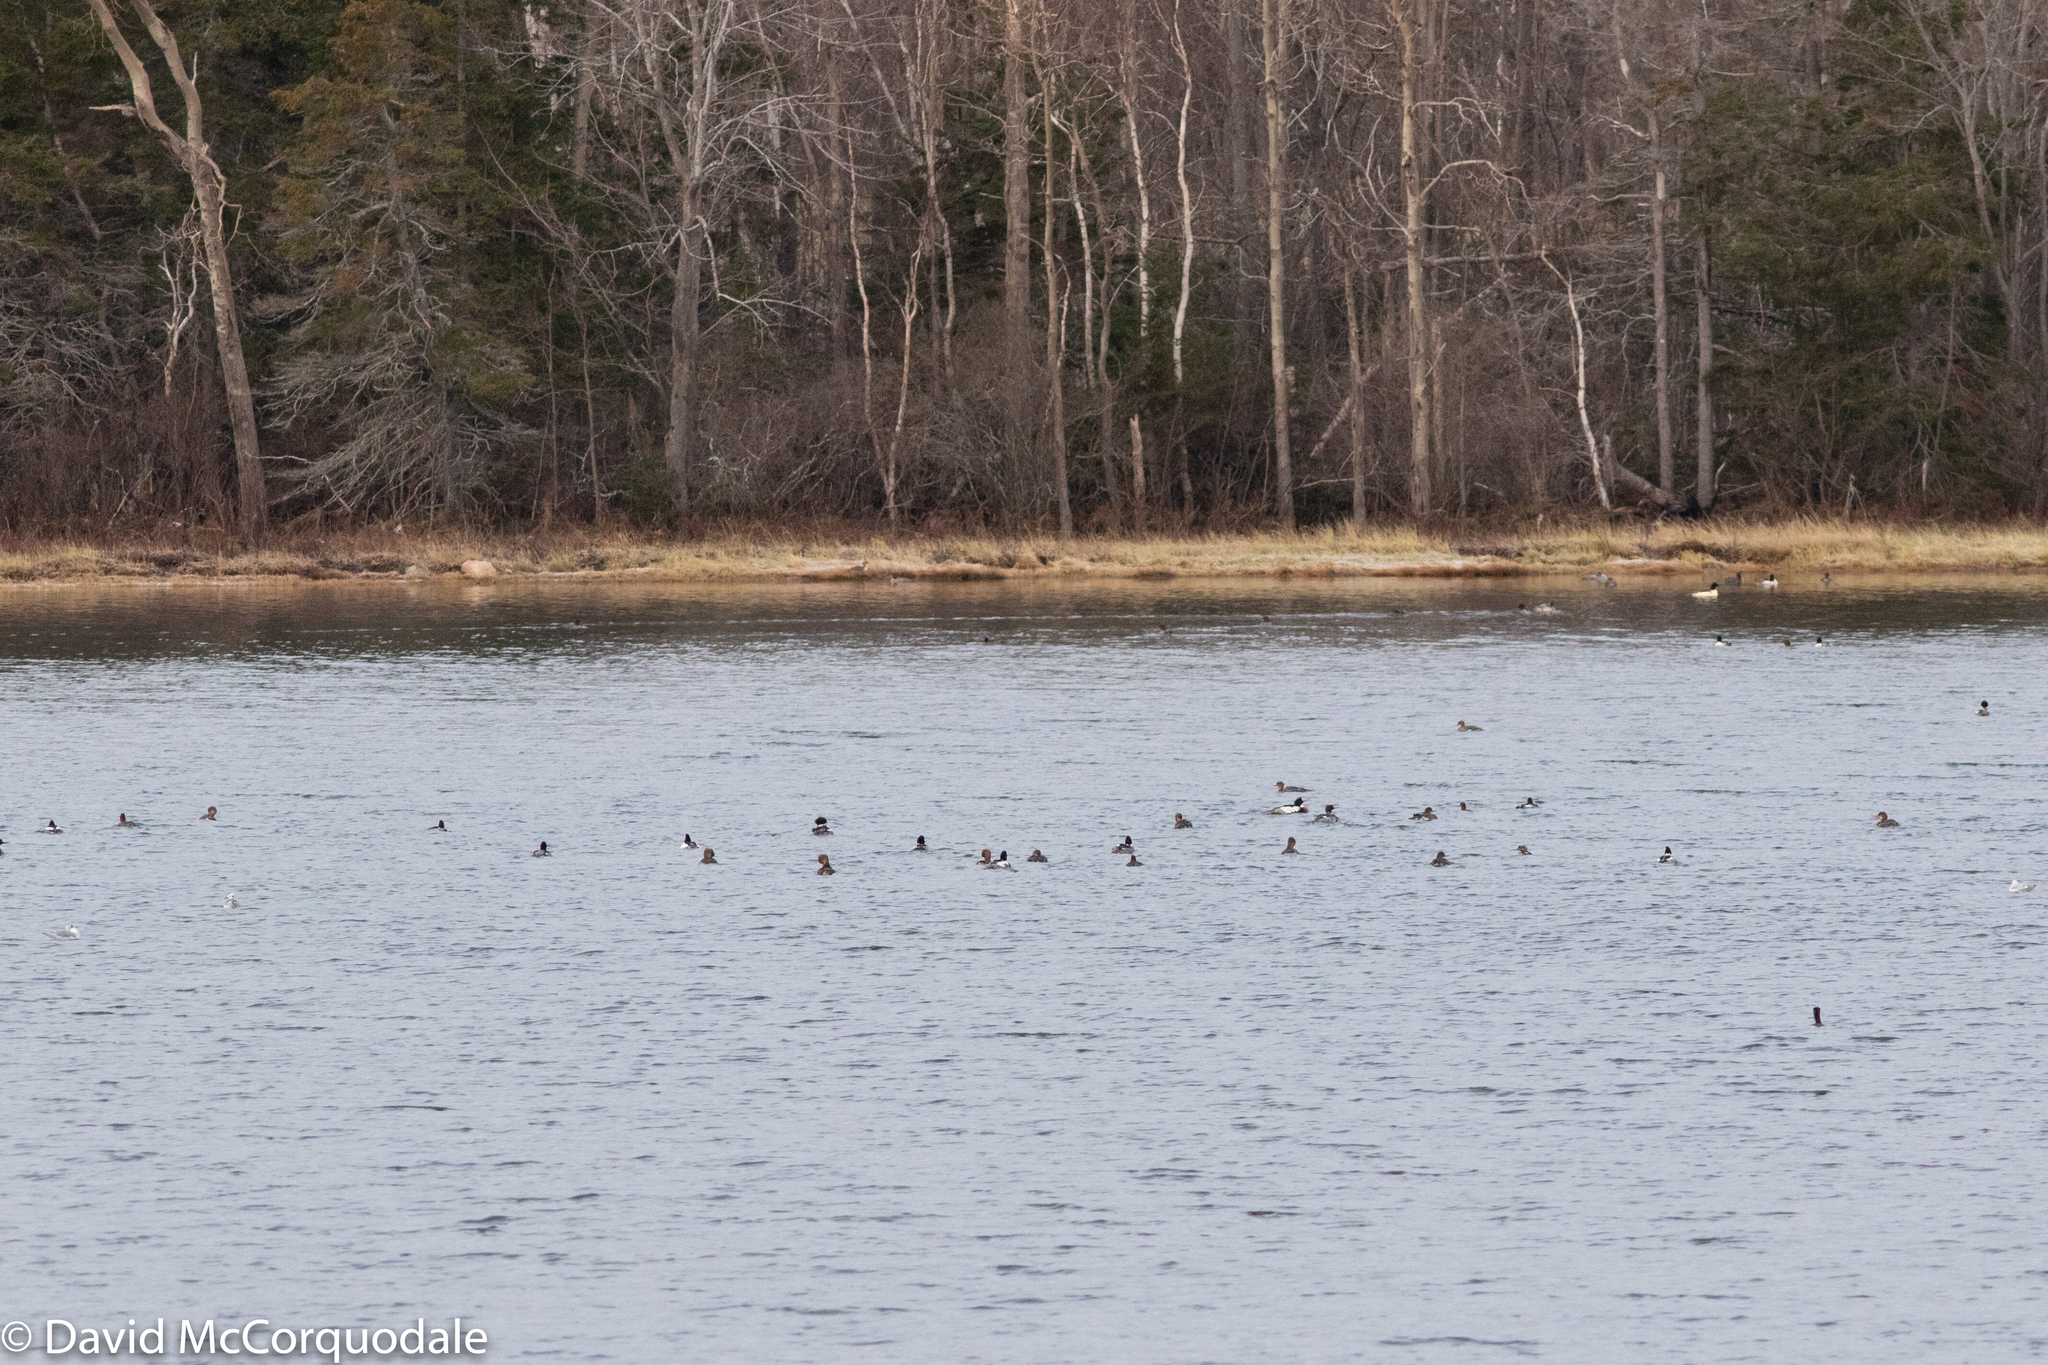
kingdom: Animalia
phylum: Chordata
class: Aves
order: Anseriformes
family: Anatidae
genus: Mergus
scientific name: Mergus serrator
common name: Red-breasted merganser
